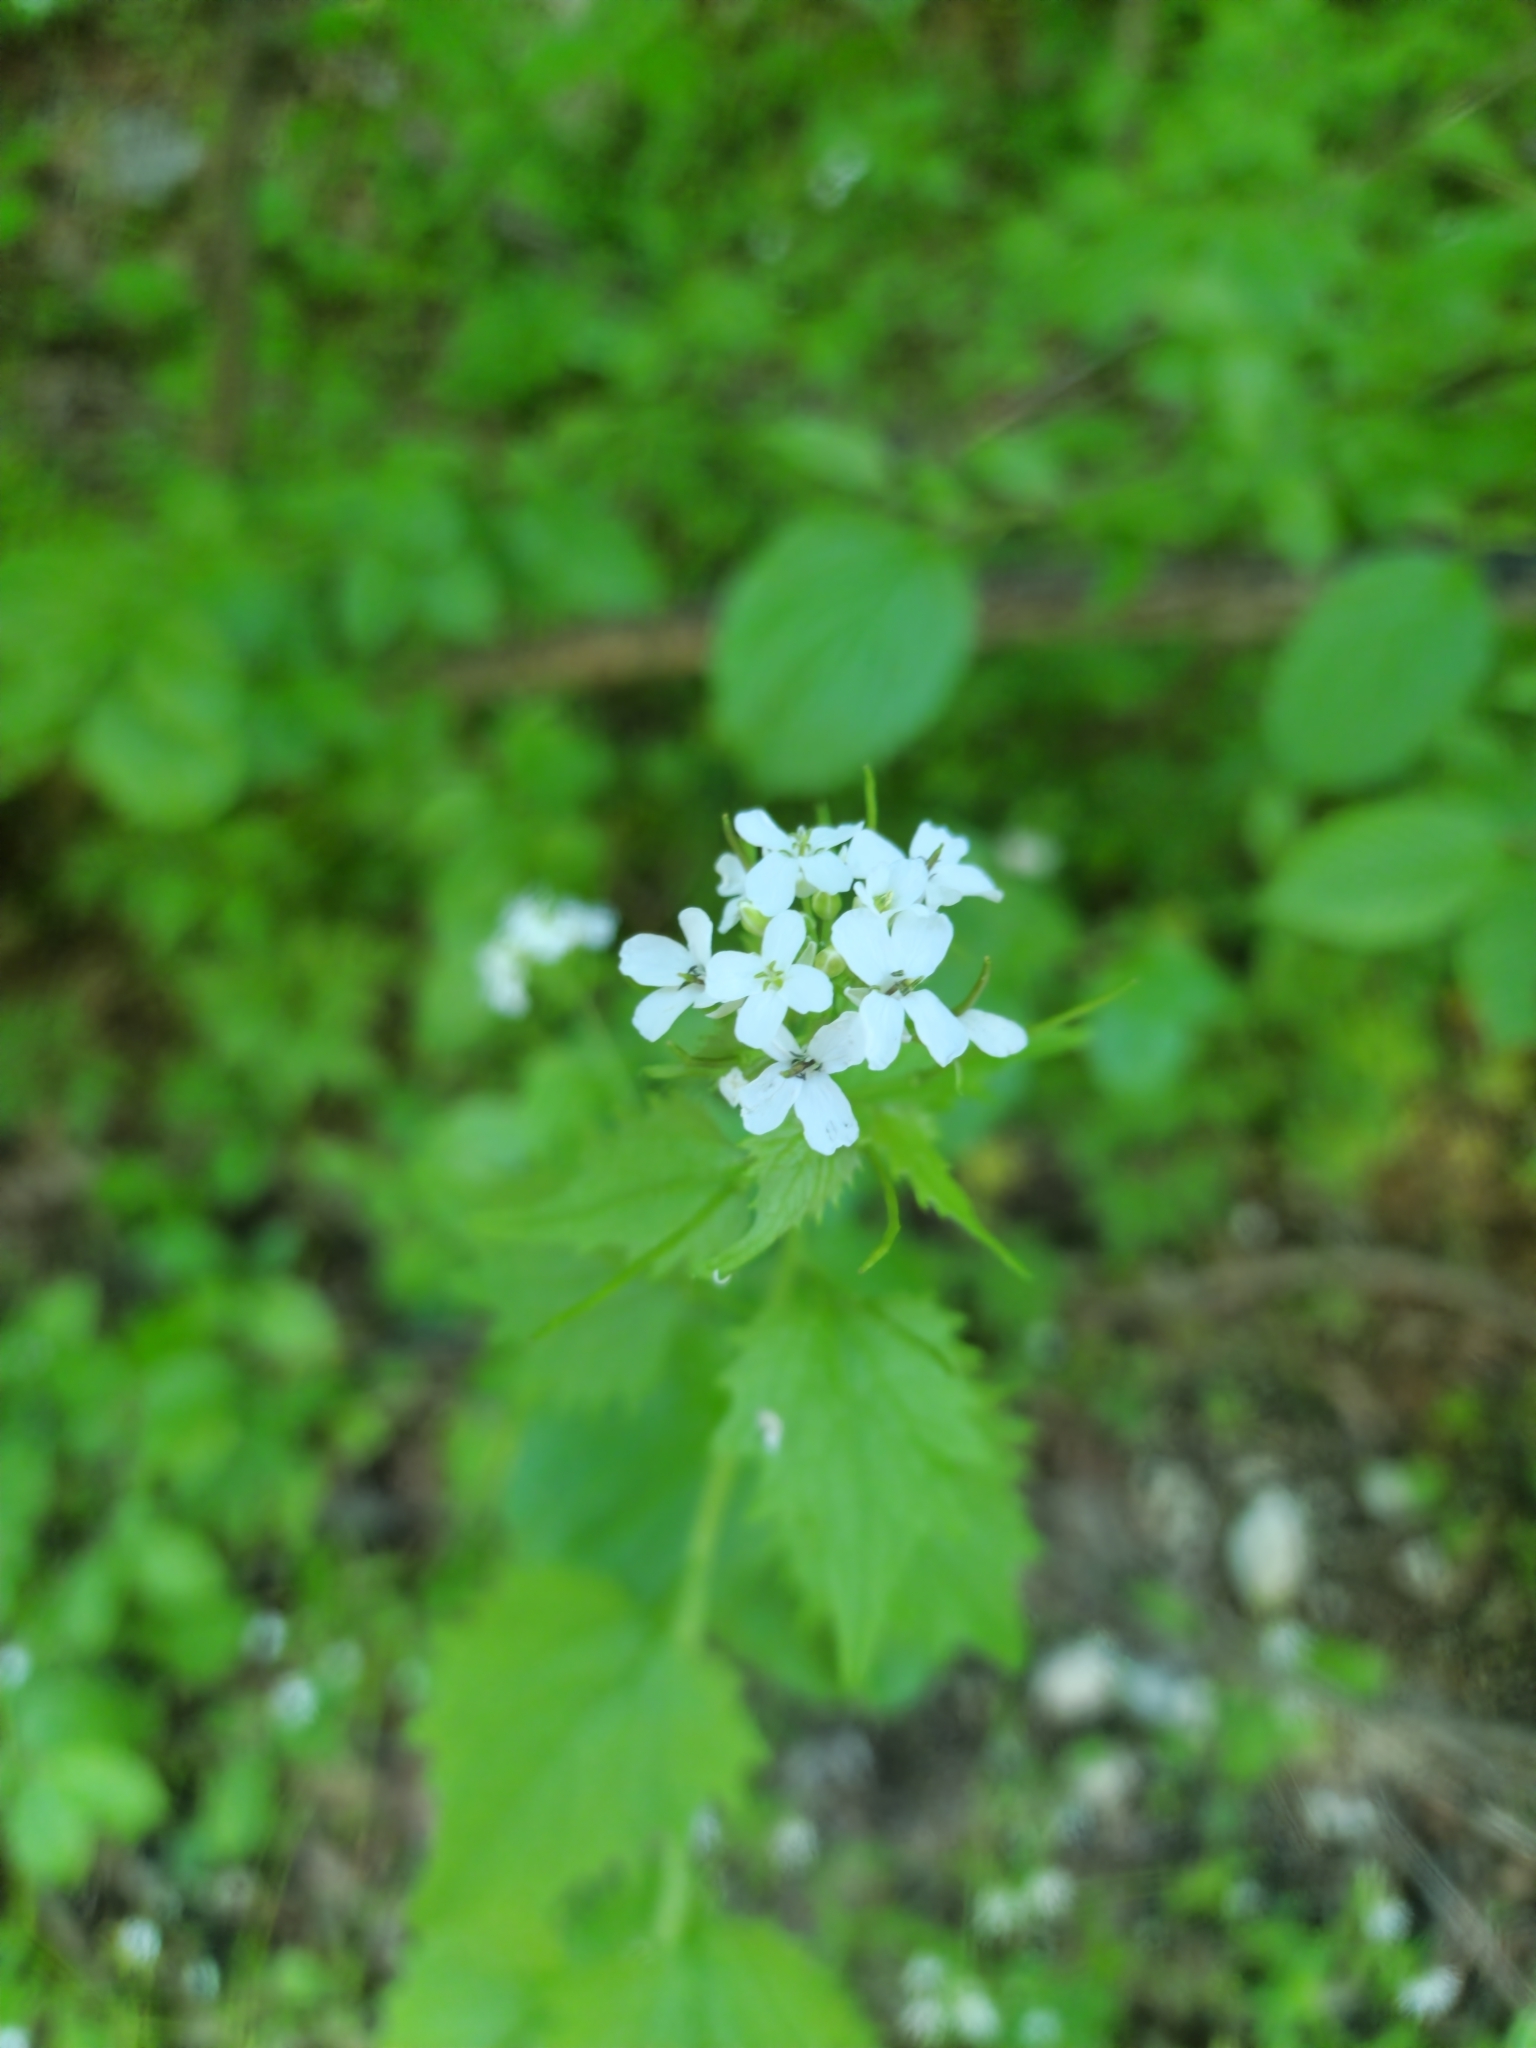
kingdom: Plantae
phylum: Tracheophyta
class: Magnoliopsida
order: Brassicales
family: Brassicaceae
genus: Alliaria
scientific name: Alliaria petiolata
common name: Garlic mustard
